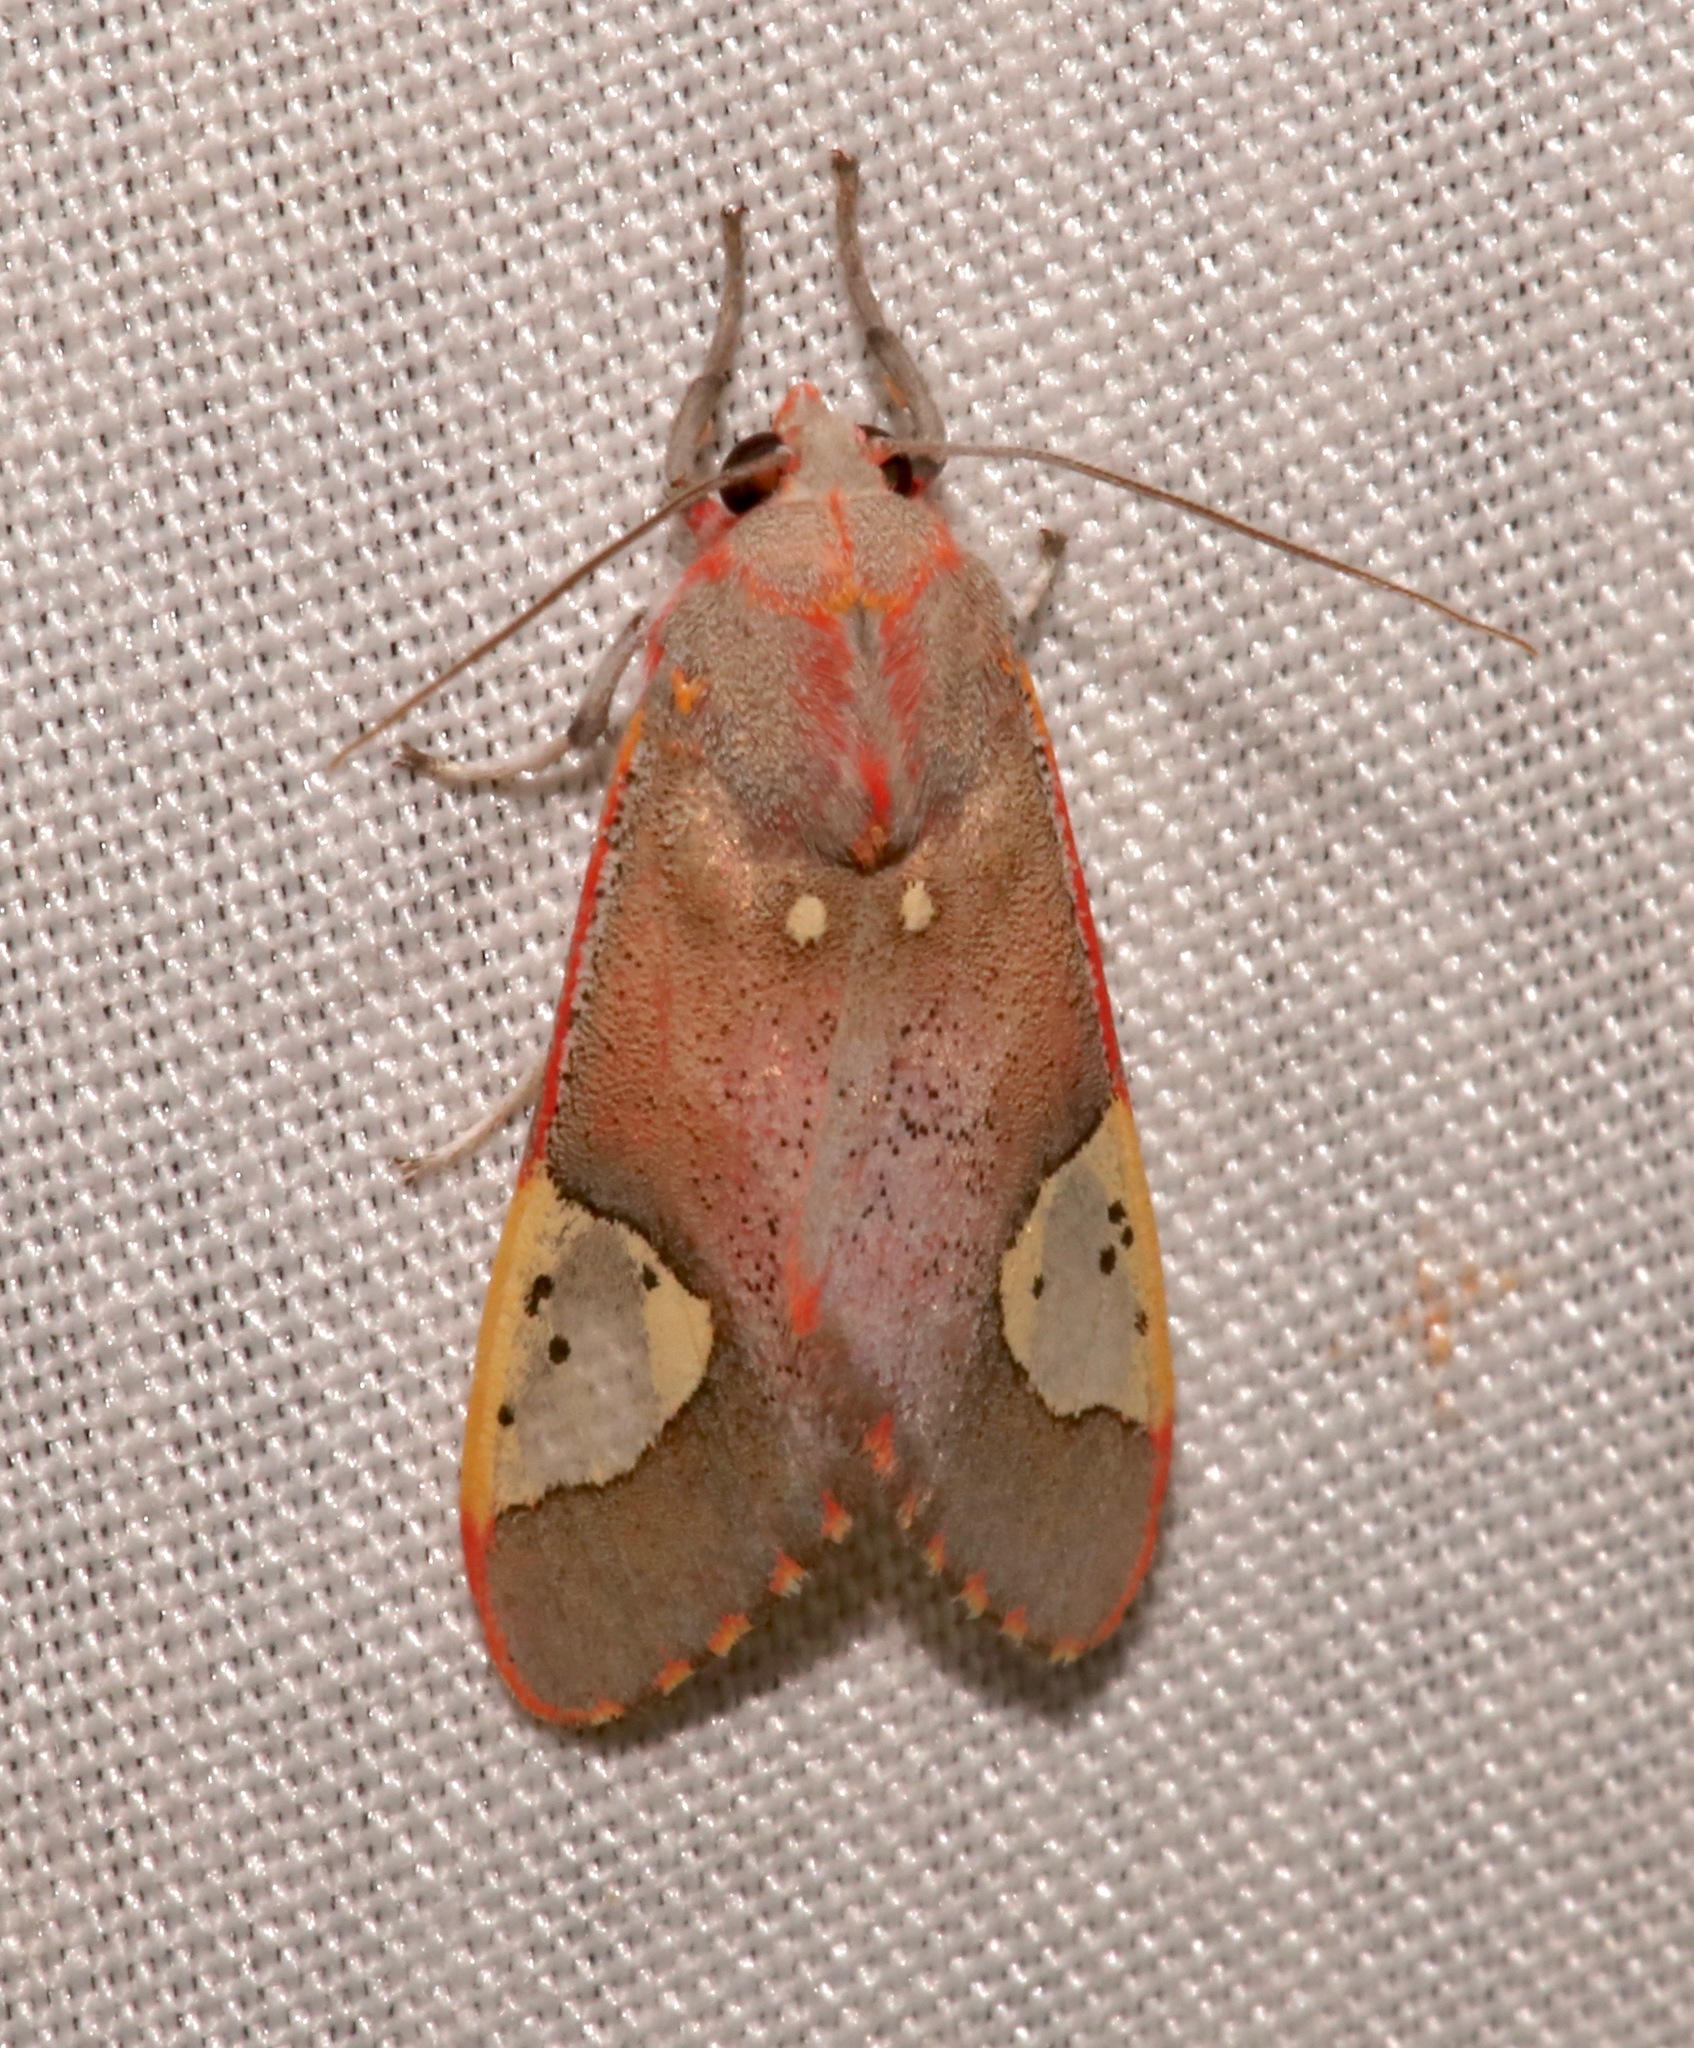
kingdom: Animalia
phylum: Arthropoda
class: Insecta
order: Lepidoptera
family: Erebidae
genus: Bertholdia
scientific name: Bertholdia trigona
